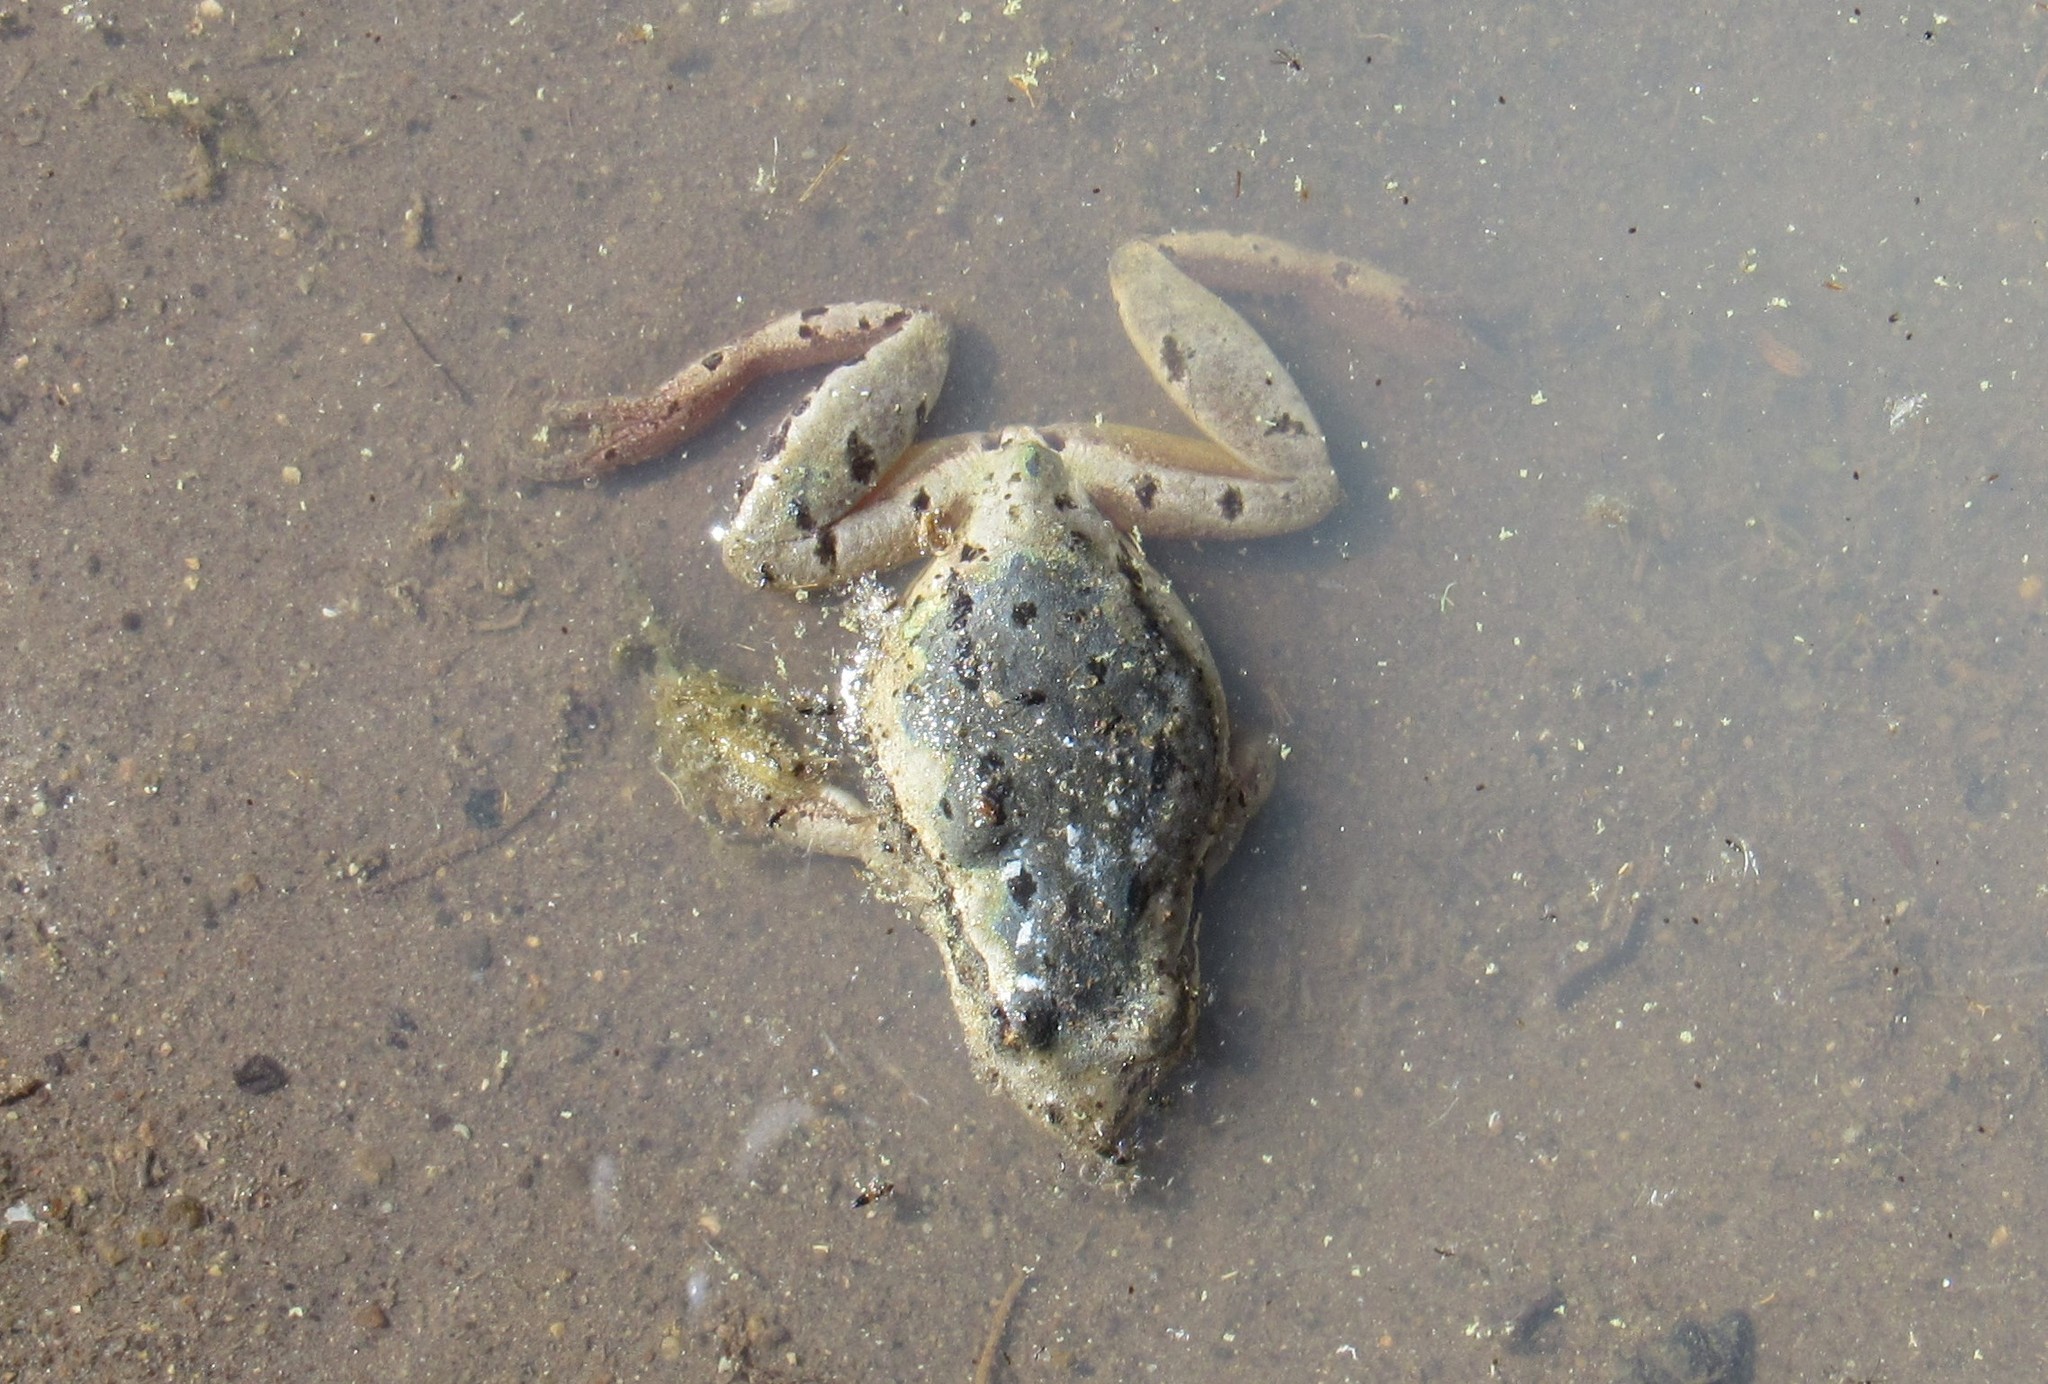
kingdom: Animalia
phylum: Chordata
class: Amphibia
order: Anura
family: Hylidae
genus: Dryophytes
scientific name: Dryophytes eximius
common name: Mountain treefrog
